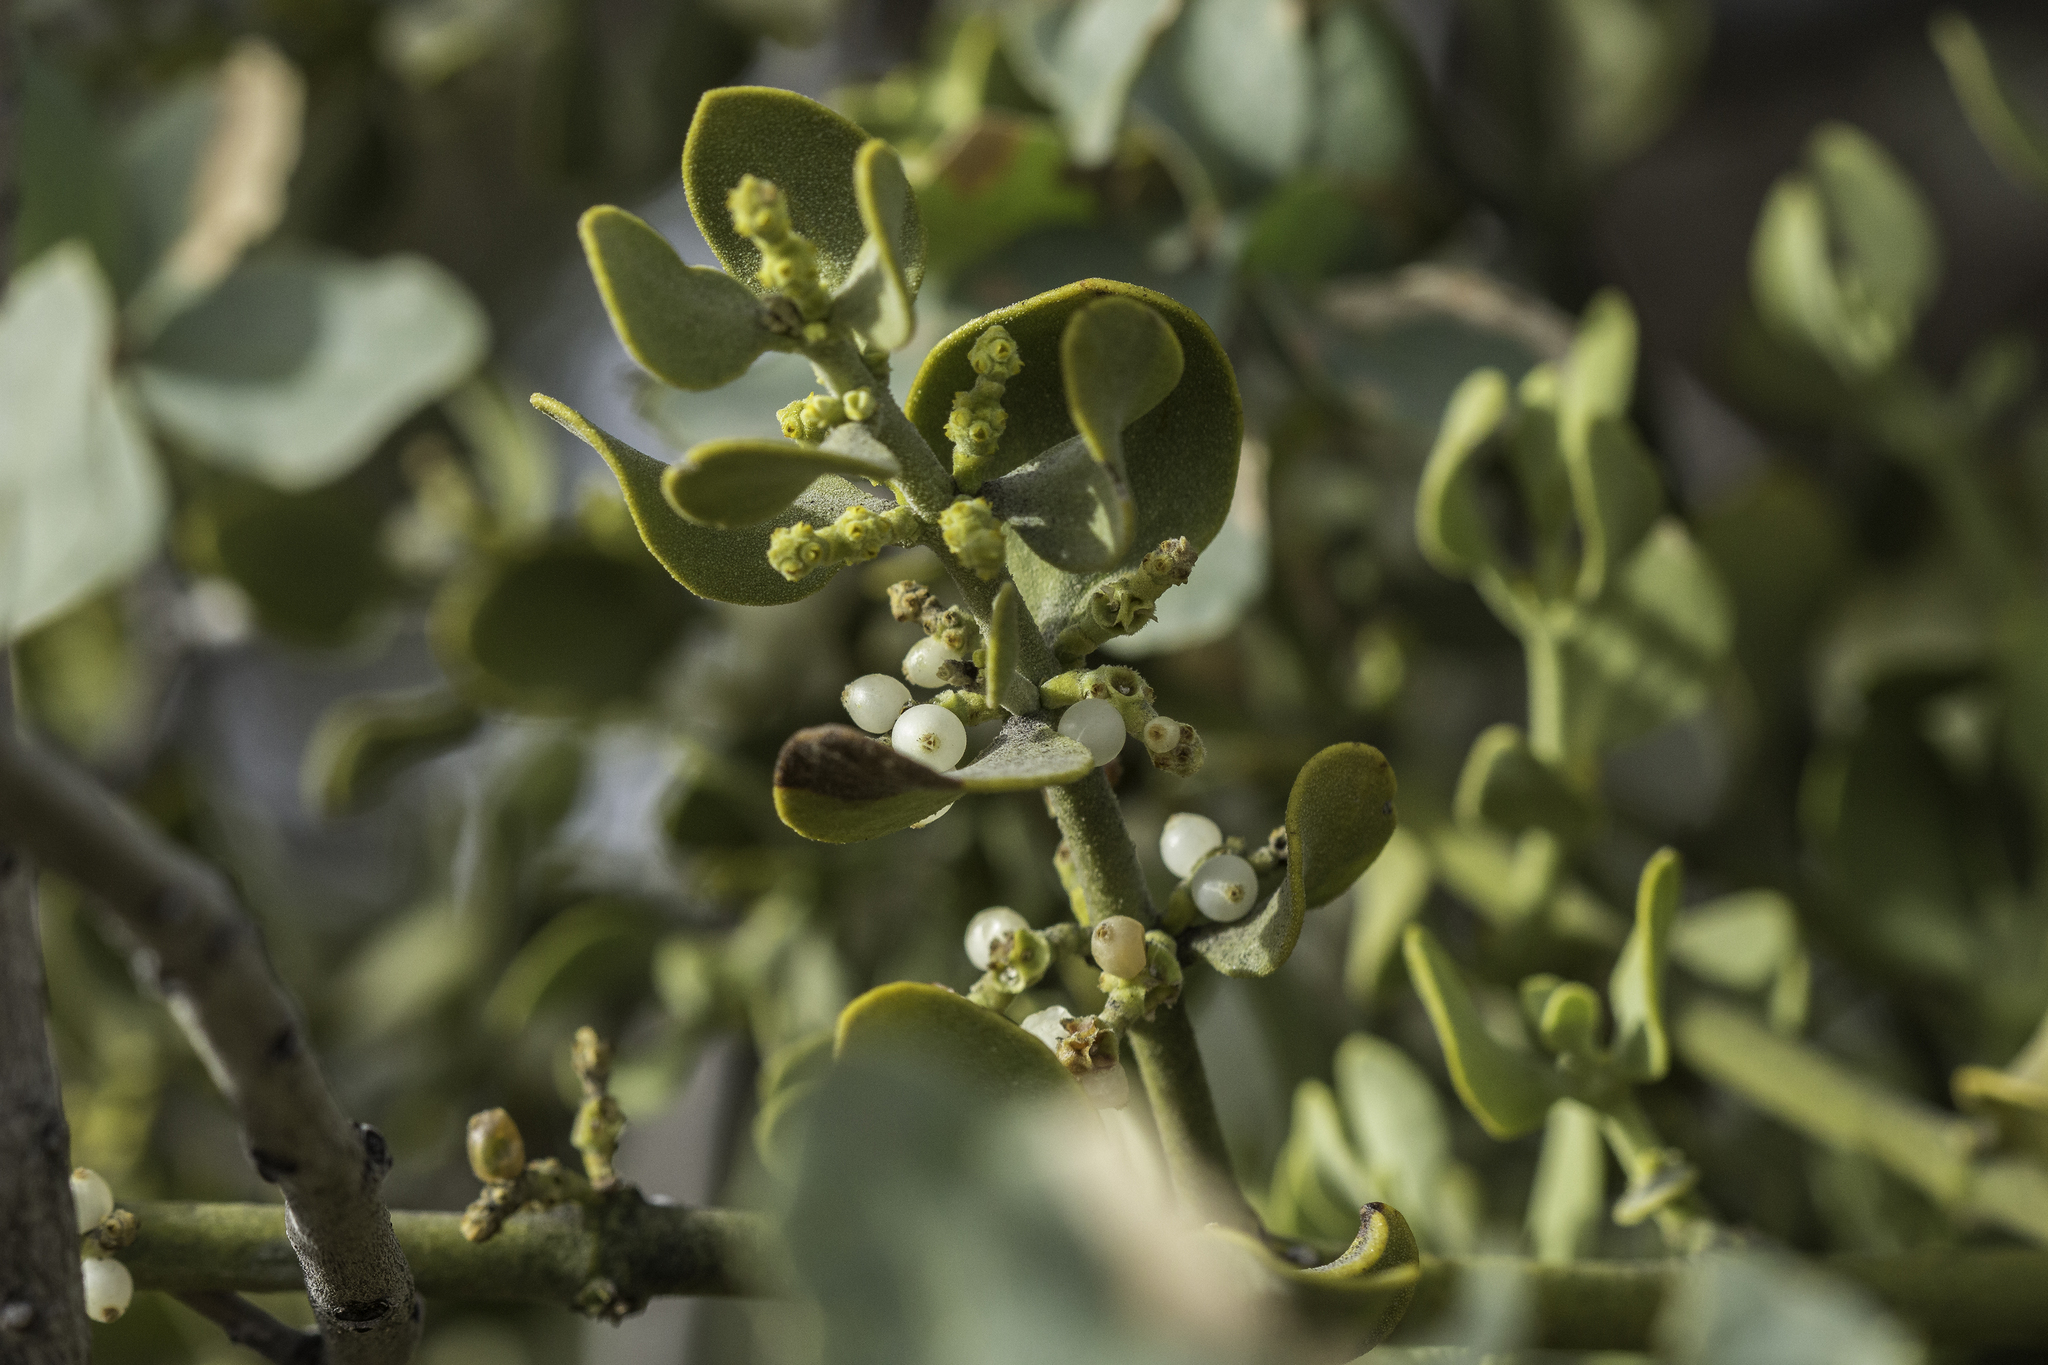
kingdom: Plantae
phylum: Tracheophyta
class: Magnoliopsida
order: Santalales
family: Viscaceae
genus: Phoradendron
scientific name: Phoradendron coryae
